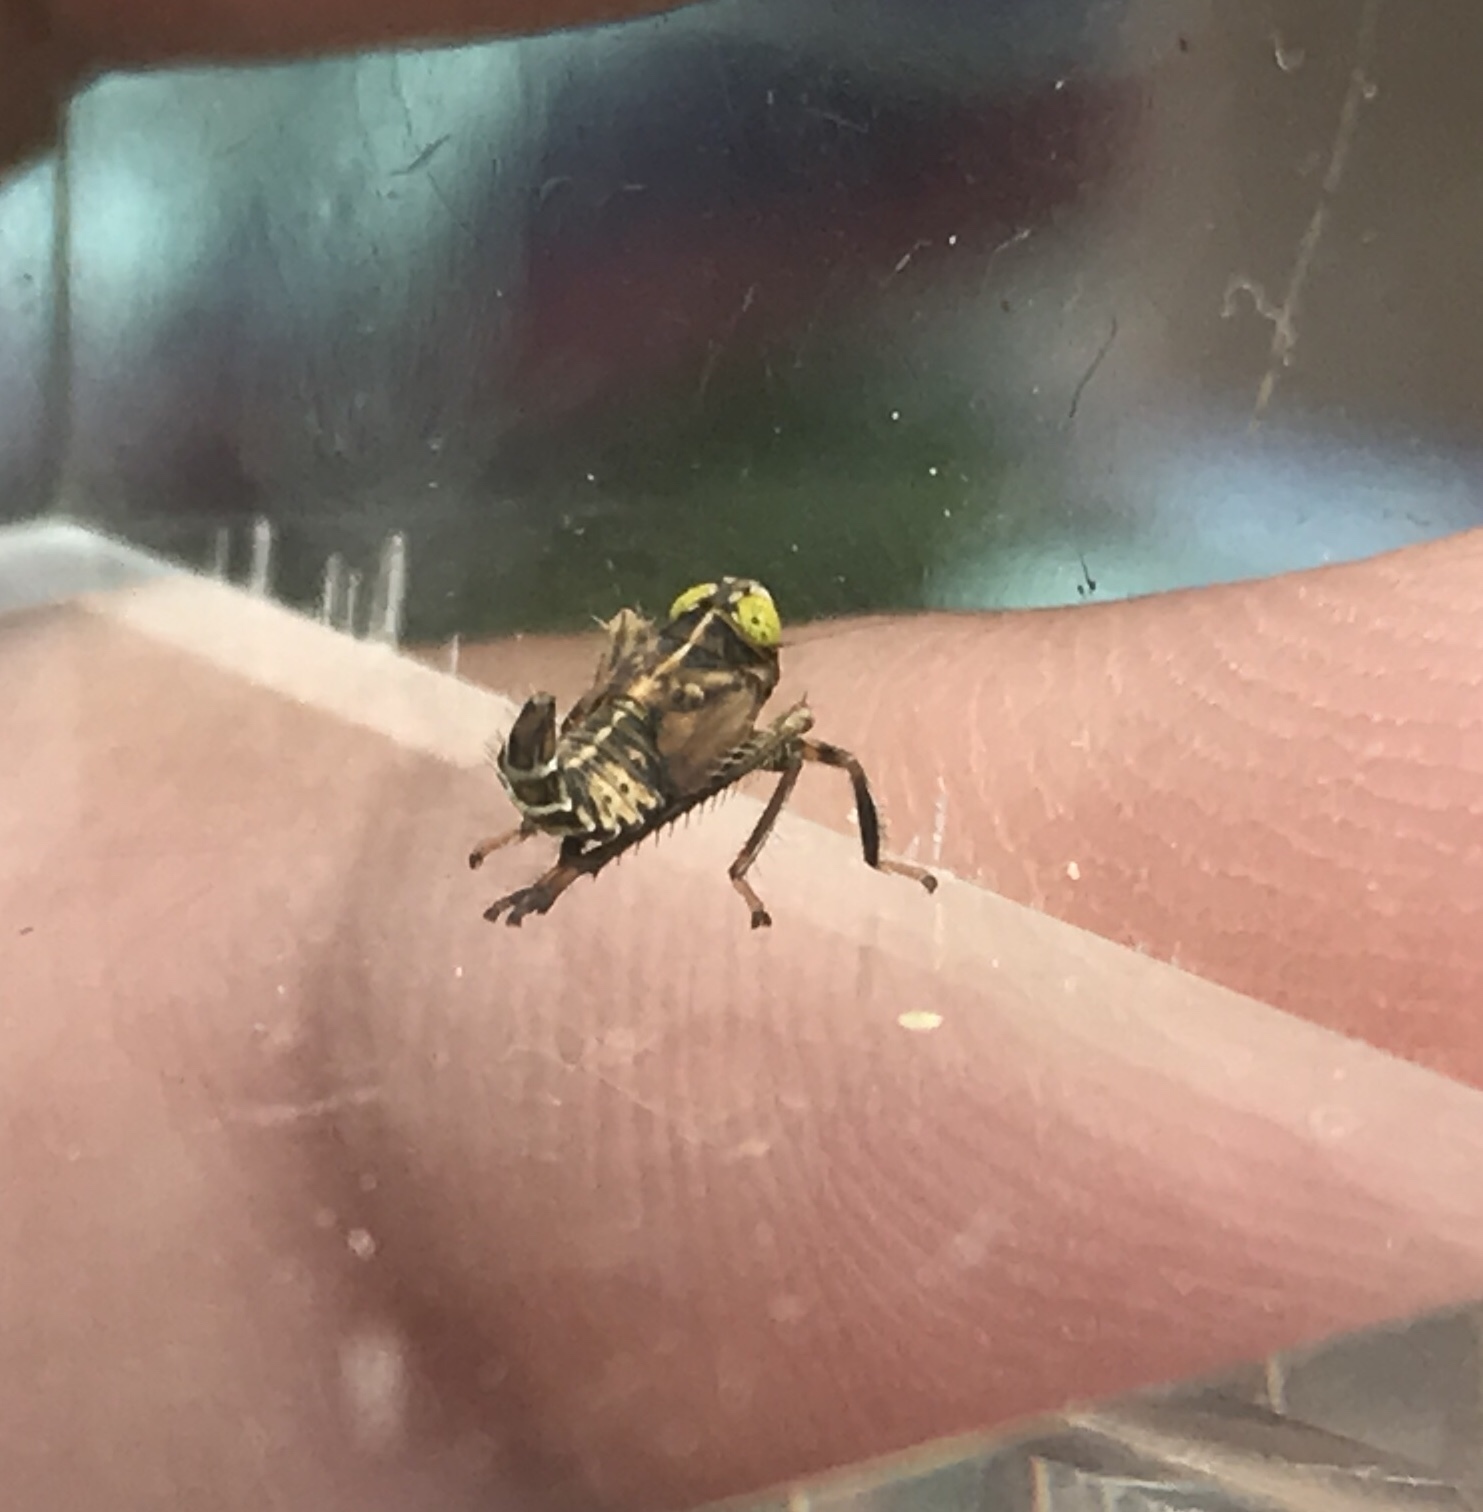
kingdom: Animalia
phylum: Arthropoda
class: Insecta
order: Hemiptera
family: Cicadellidae
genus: Jikradia
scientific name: Jikradia olitoria
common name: Coppery leafhopper
